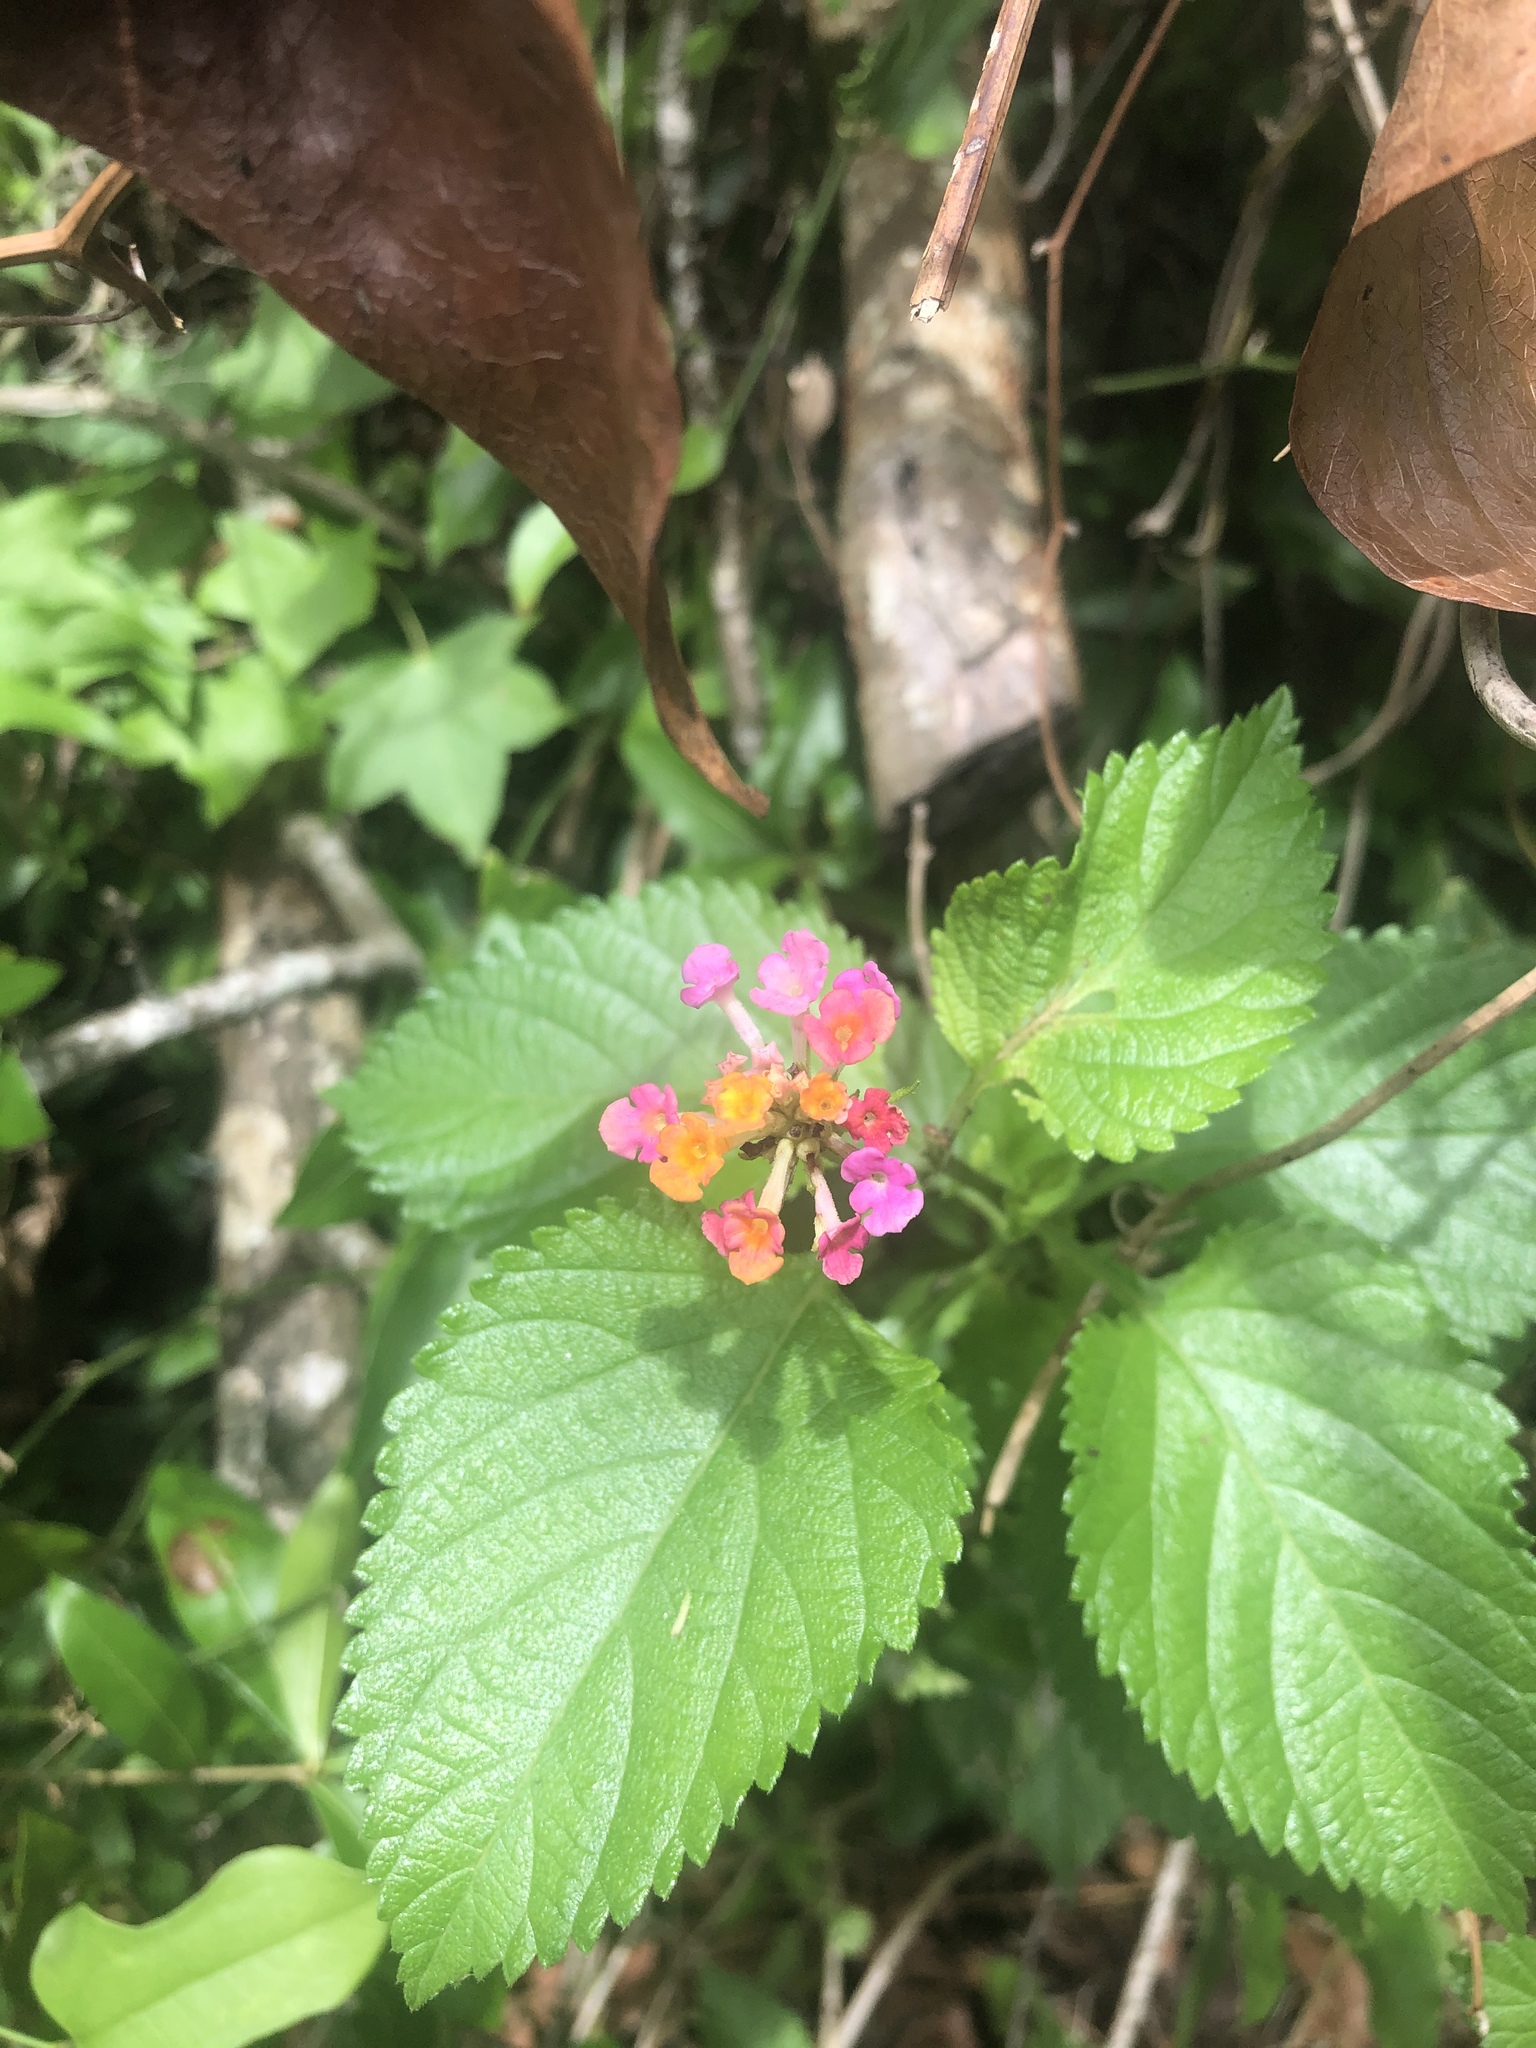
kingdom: Plantae
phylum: Tracheophyta
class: Magnoliopsida
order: Lamiales
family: Verbenaceae
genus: Lantana
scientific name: Lantana camara
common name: Lantana
